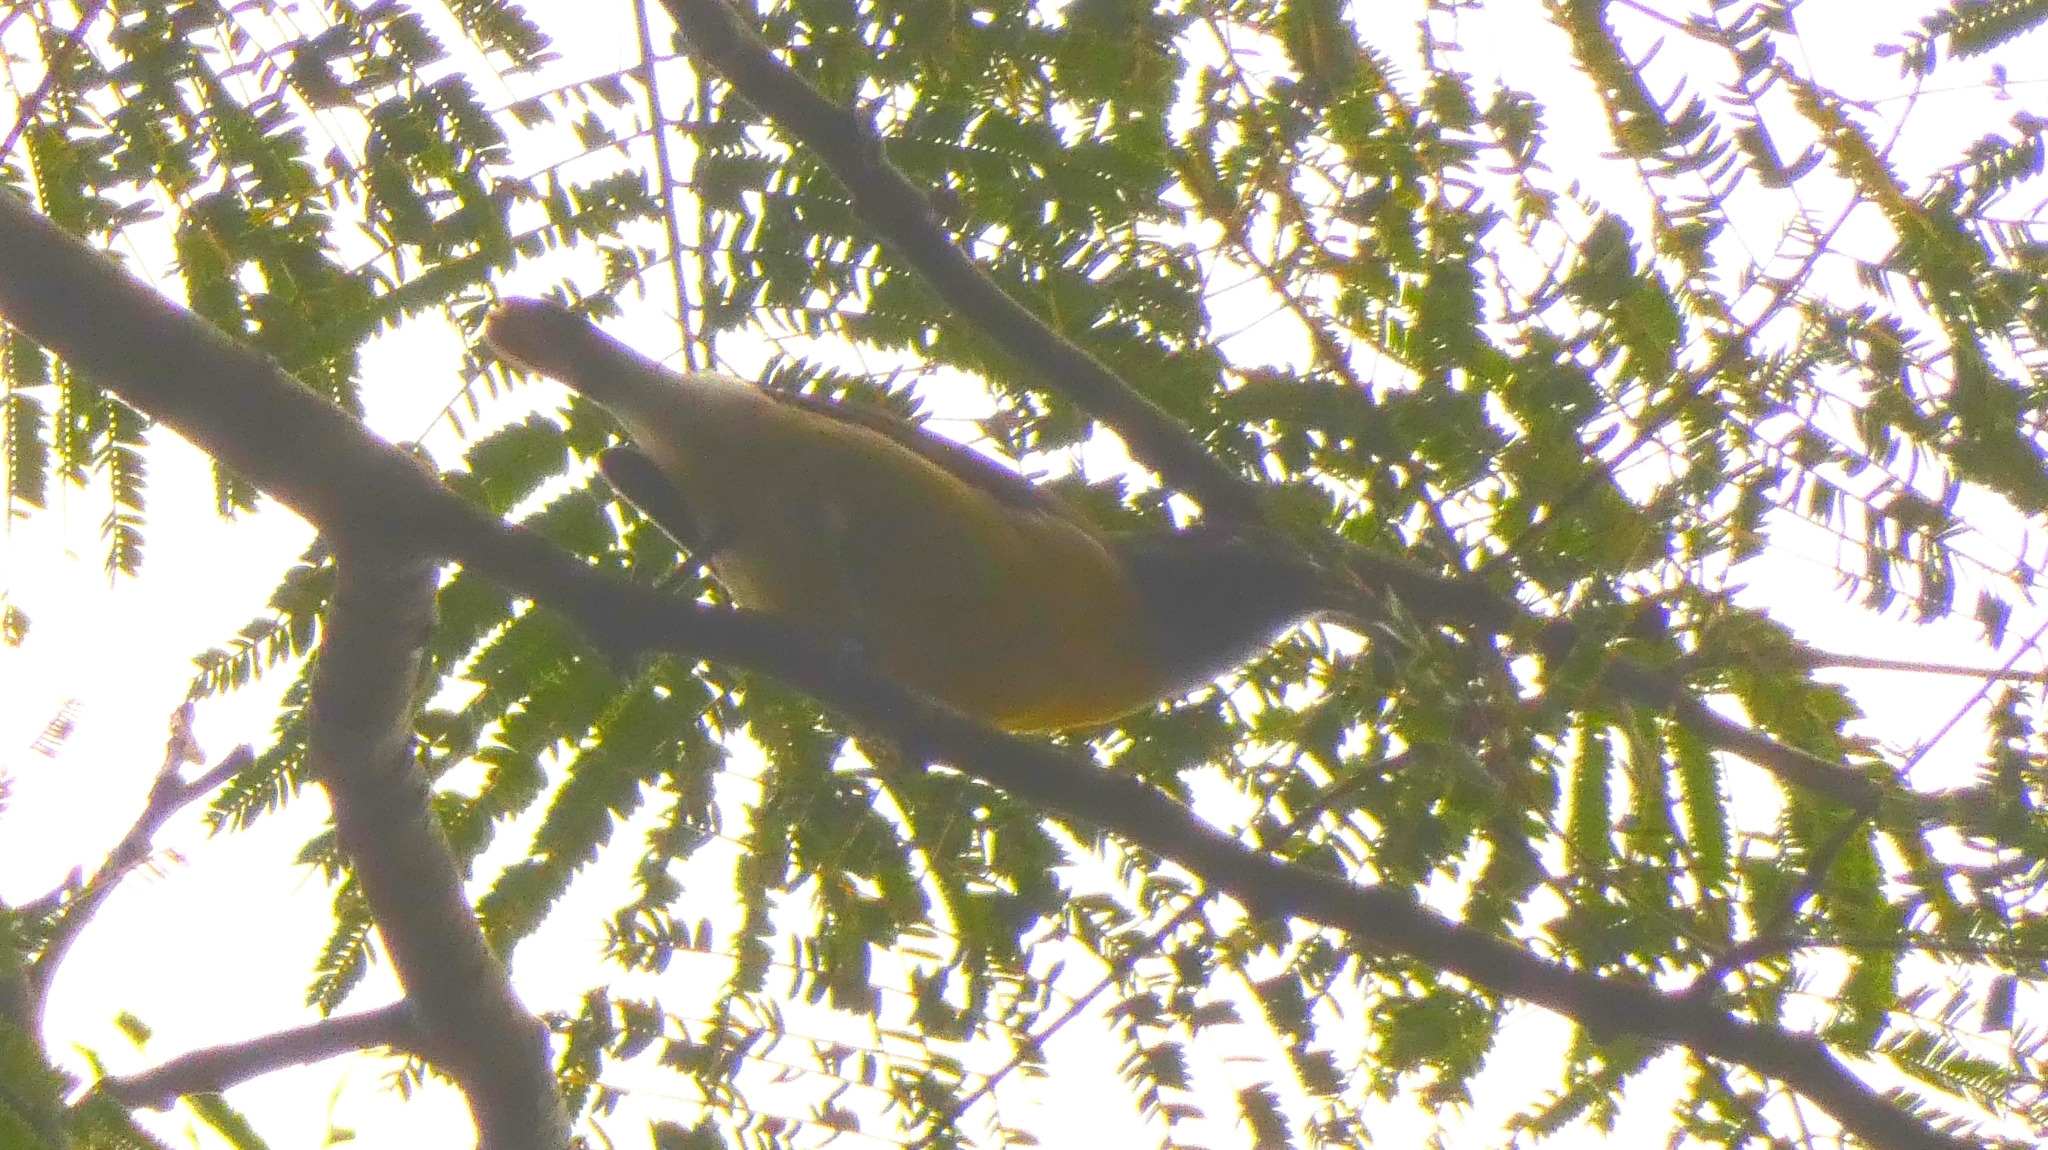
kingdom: Animalia
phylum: Chordata
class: Aves
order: Passeriformes
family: Thraupidae
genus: Coereba
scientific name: Coereba flaveola
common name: Bananaquit
